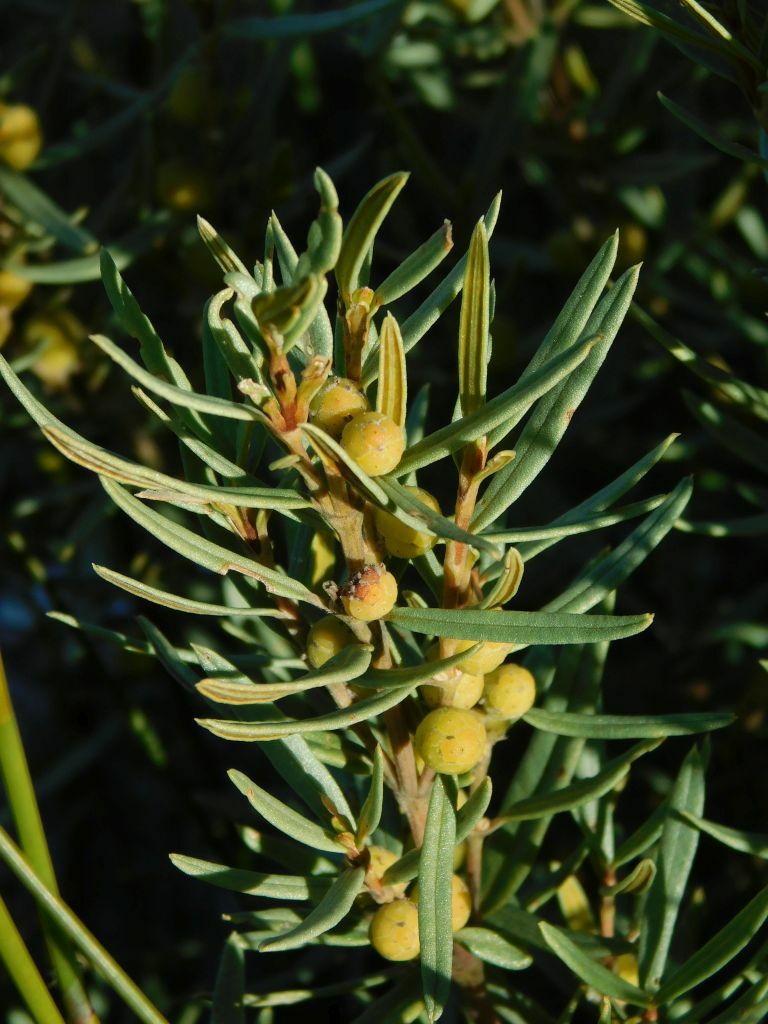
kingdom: Plantae
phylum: Tracheophyta
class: Magnoliopsida
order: Cornales
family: Grubbiaceae
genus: Grubbia
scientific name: Grubbia tomentosa
